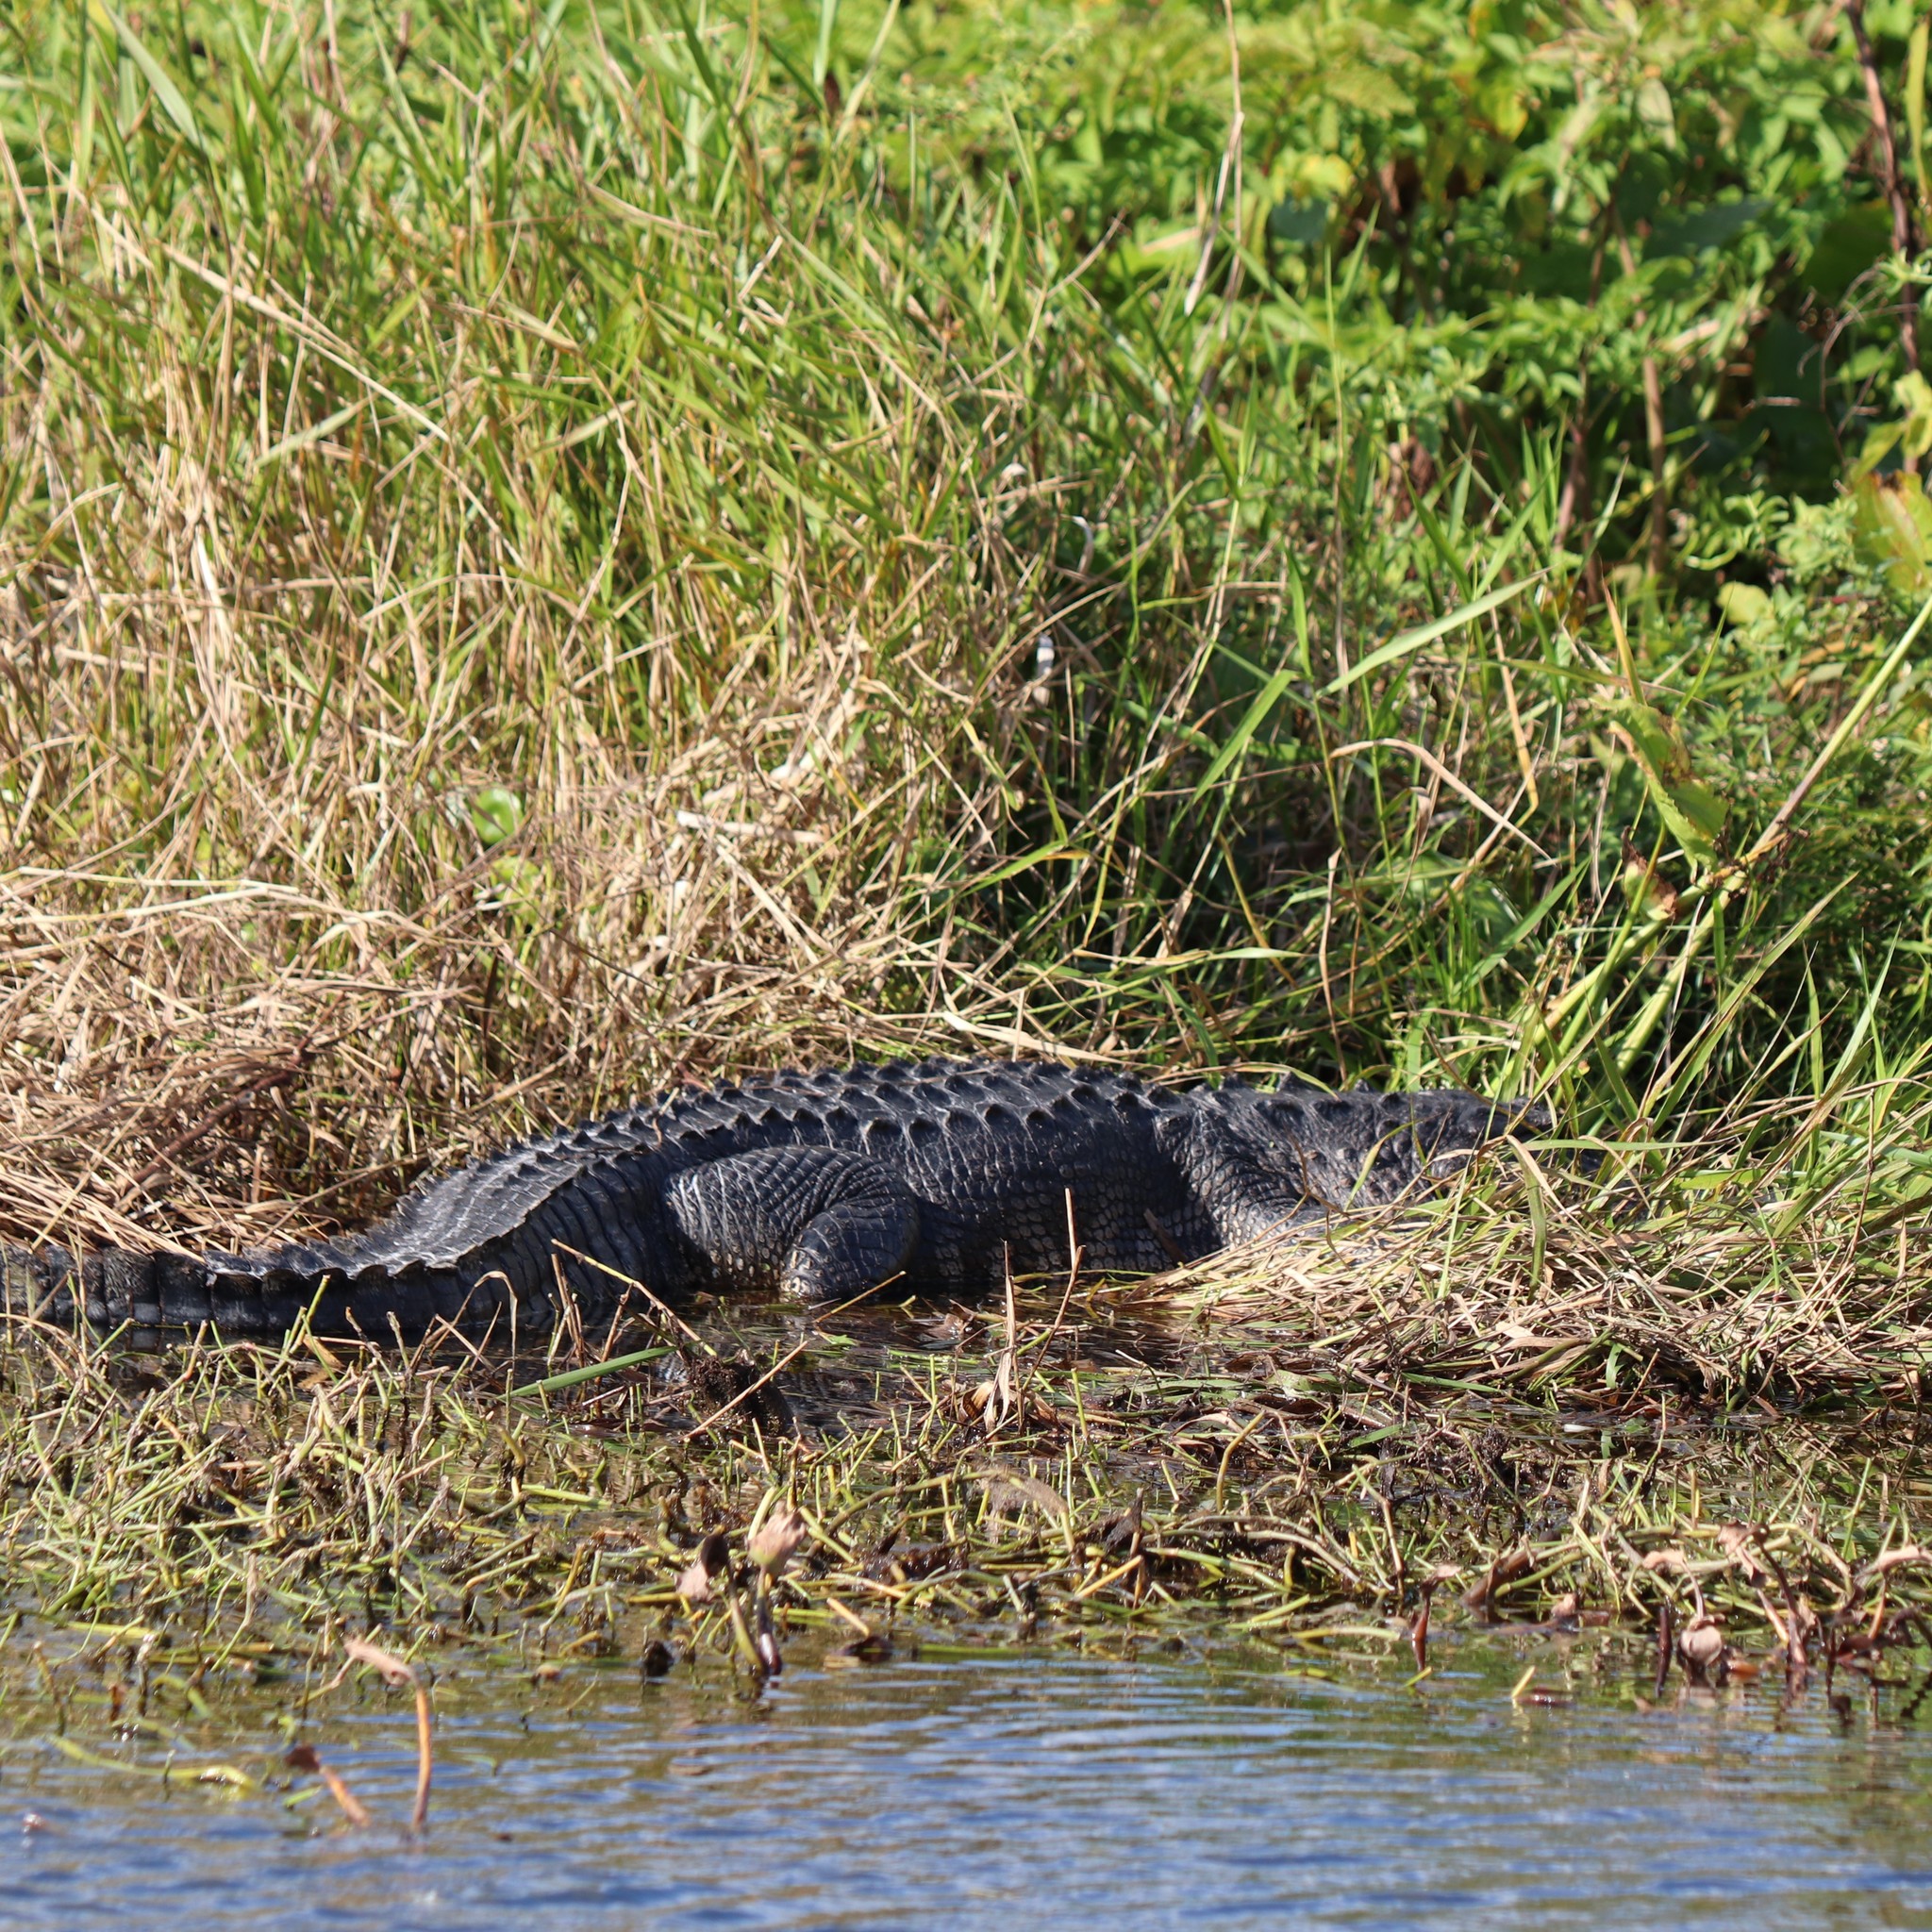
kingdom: Animalia
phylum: Chordata
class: Crocodylia
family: Alligatoridae
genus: Alligator
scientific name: Alligator mississippiensis
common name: American alligator
